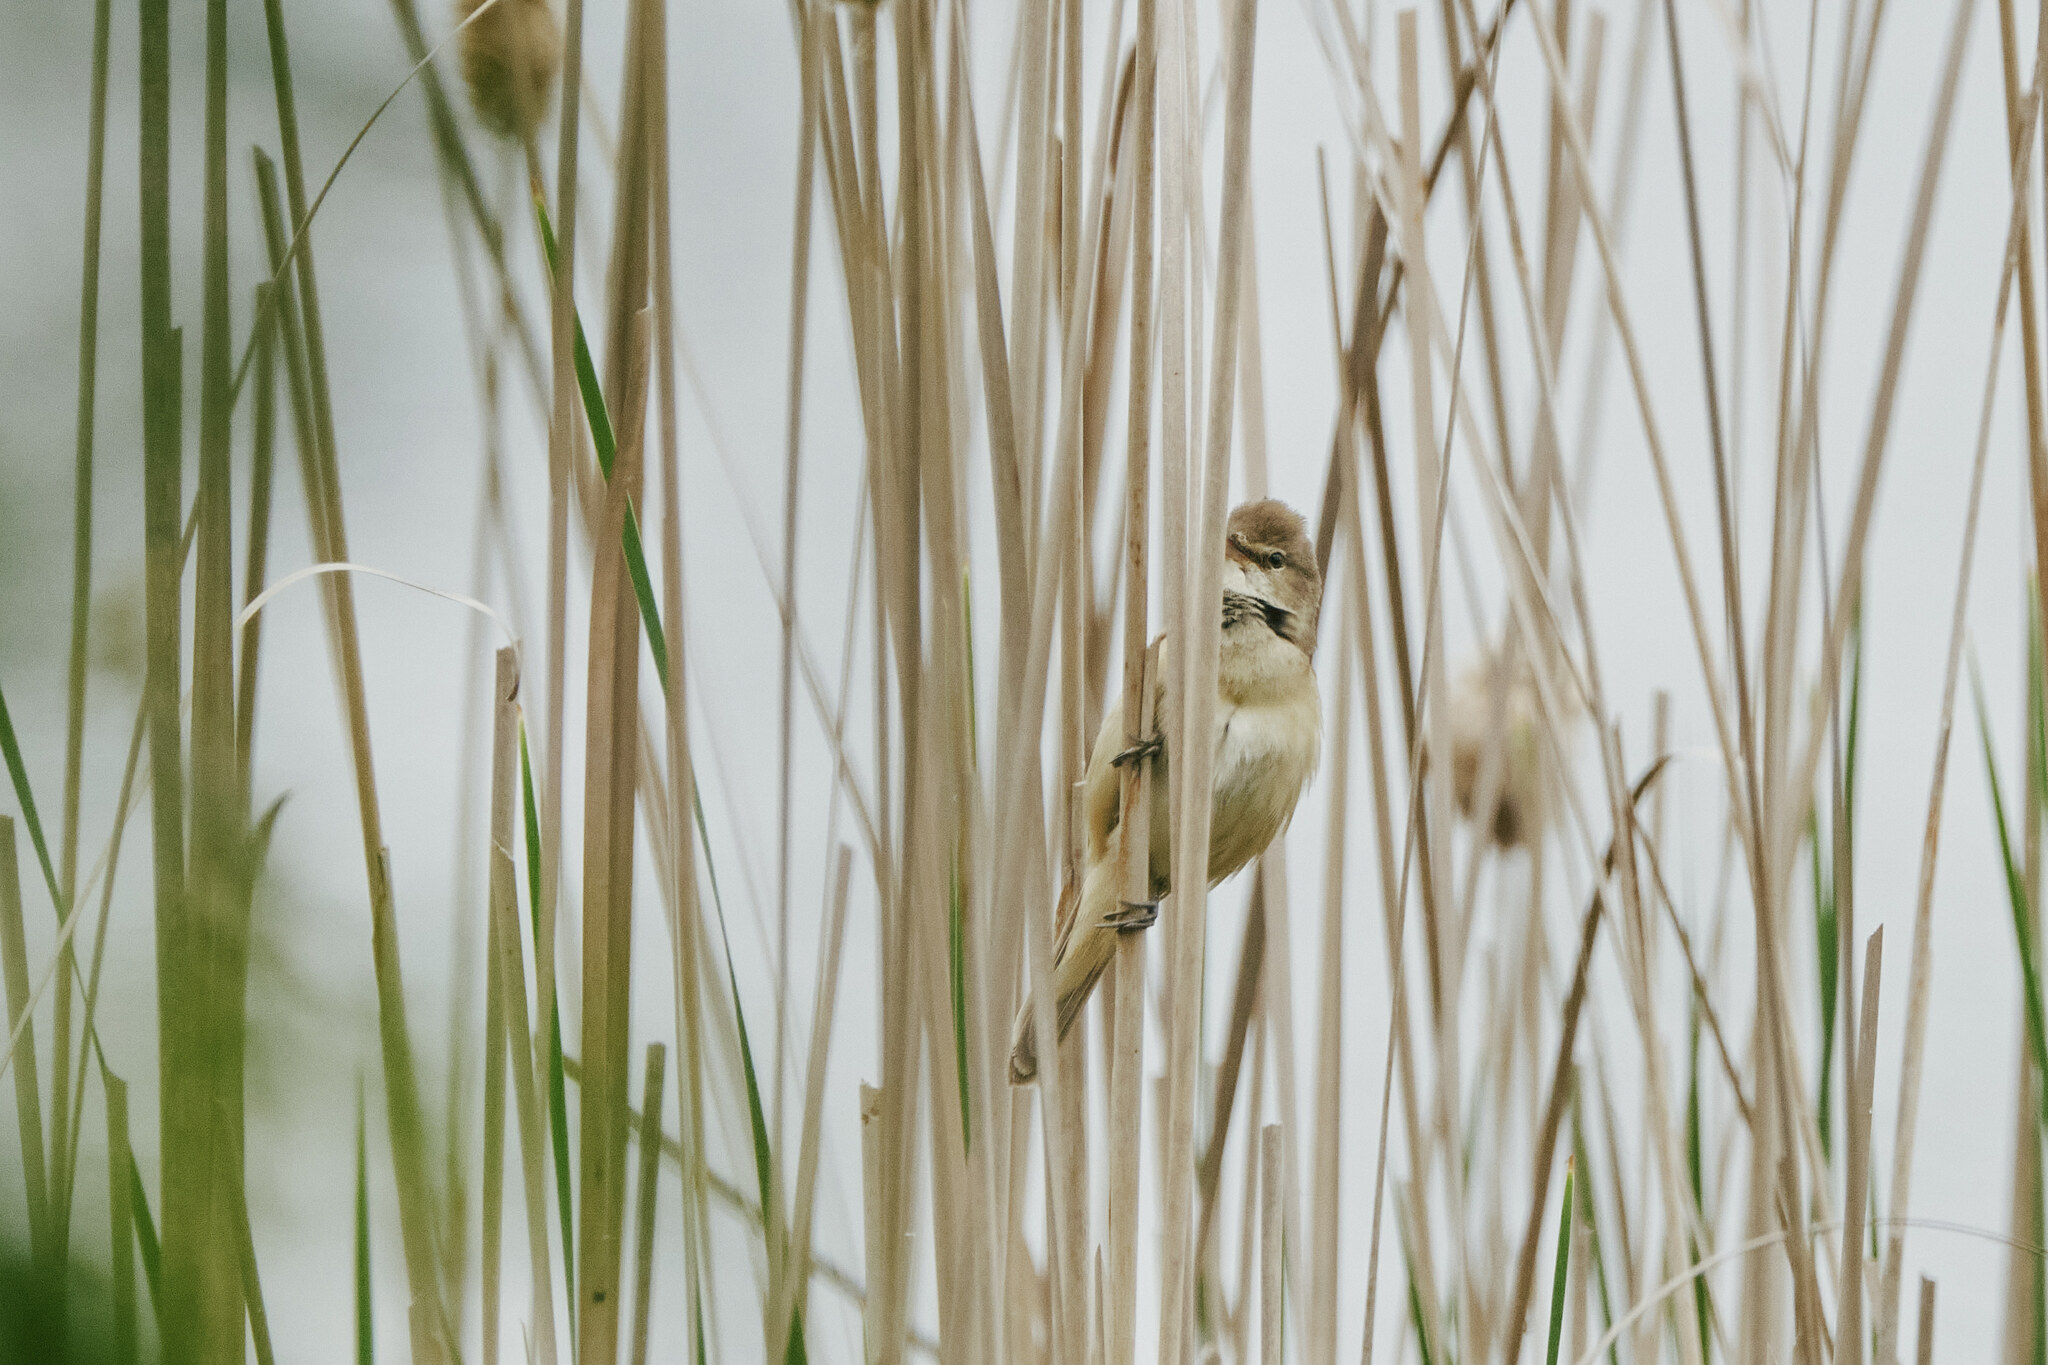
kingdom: Animalia
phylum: Chordata
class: Aves
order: Passeriformes
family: Acrocephalidae
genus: Acrocephalus
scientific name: Acrocephalus arundinaceus
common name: Great reed warbler
